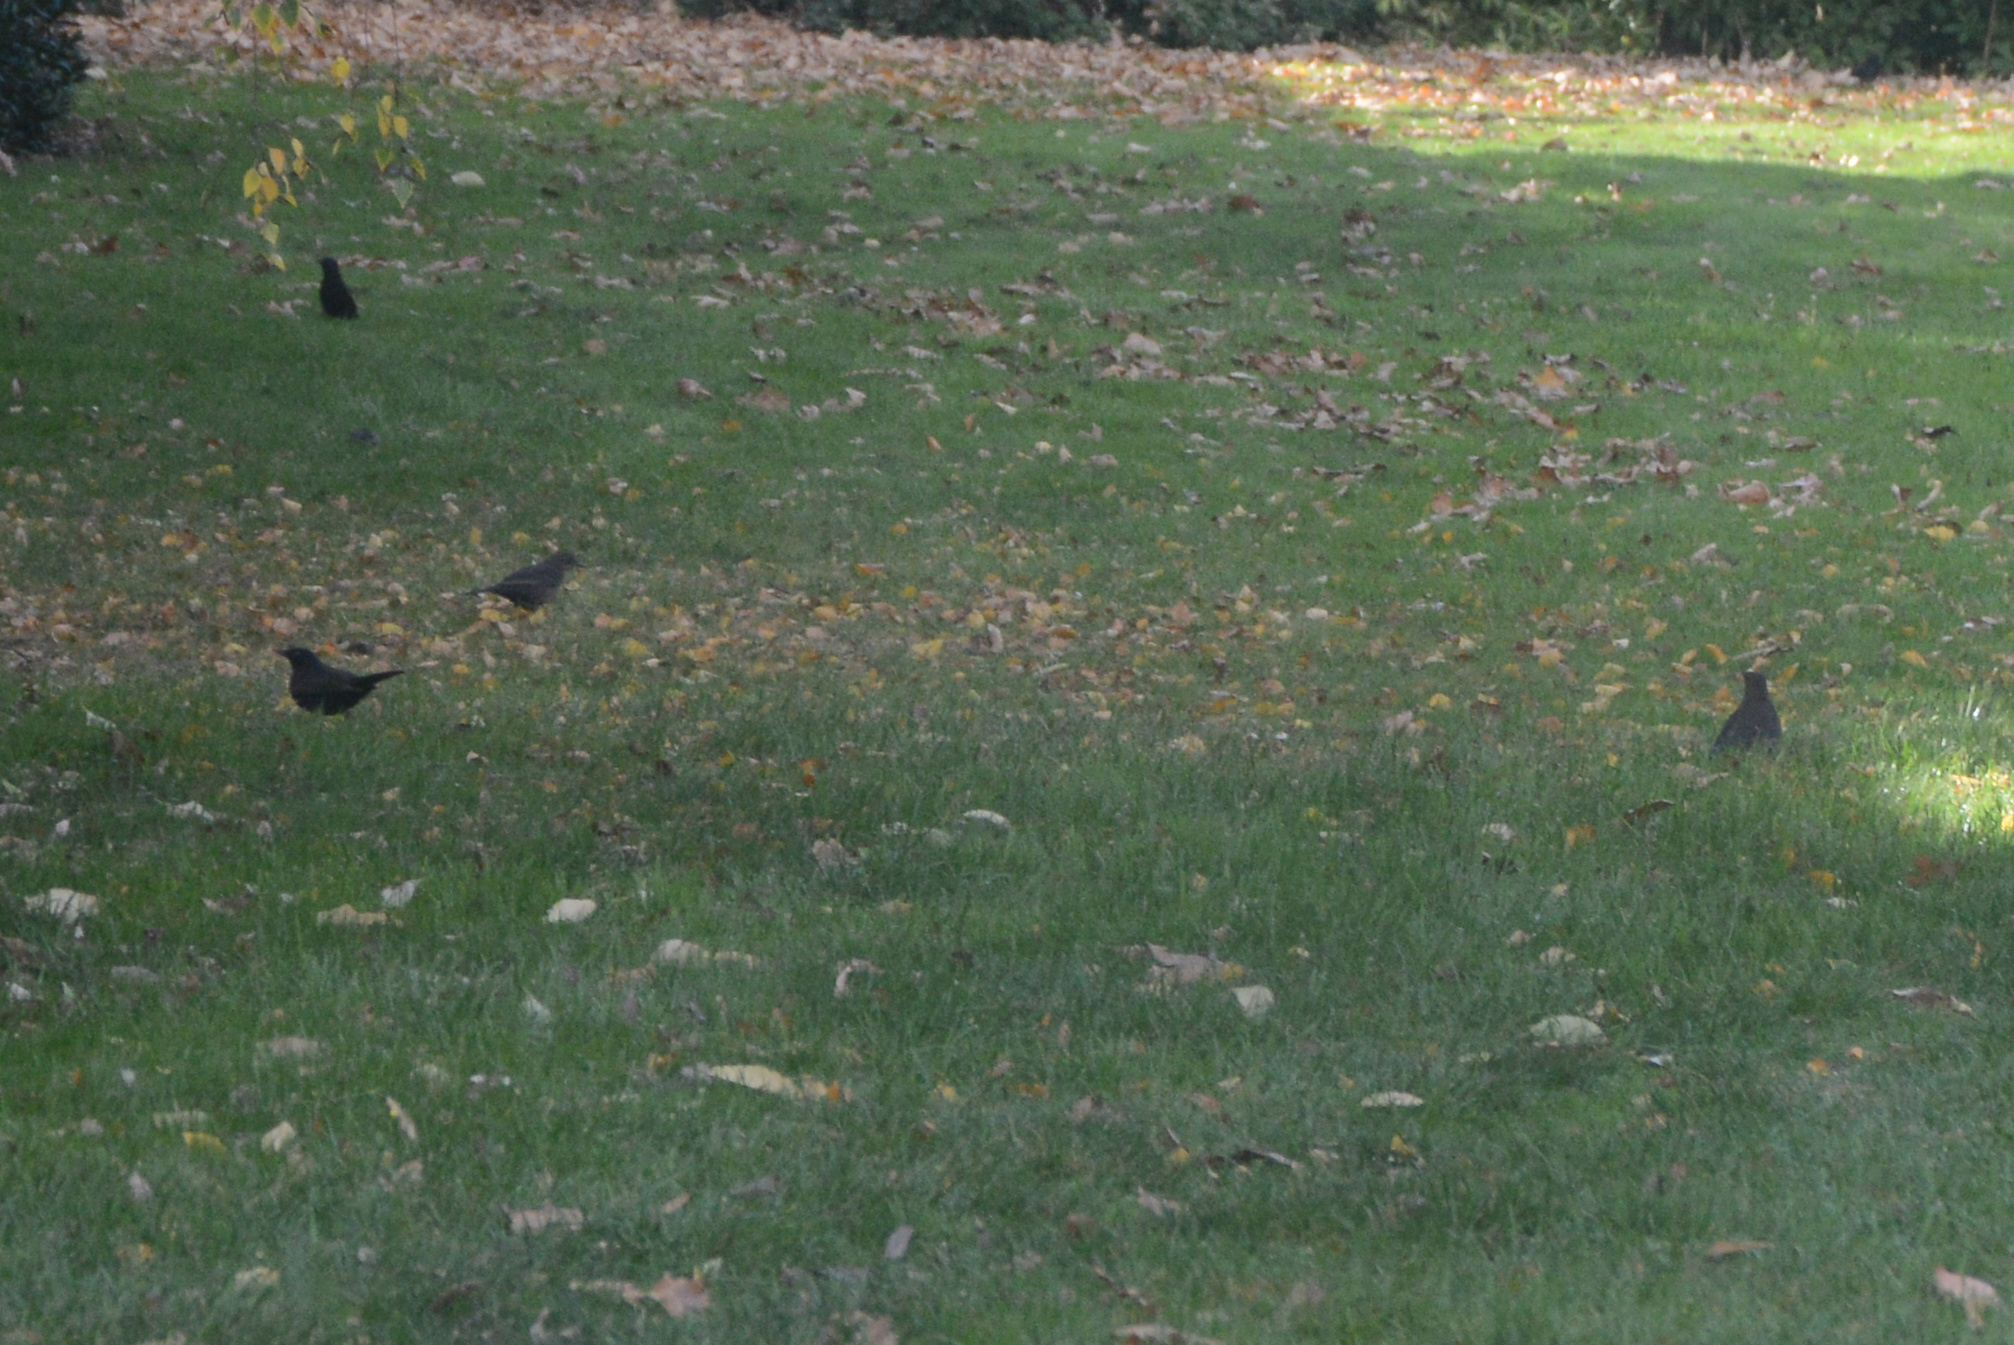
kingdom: Animalia
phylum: Chordata
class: Aves
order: Passeriformes
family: Turdidae
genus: Turdus
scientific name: Turdus merula
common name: Common blackbird
